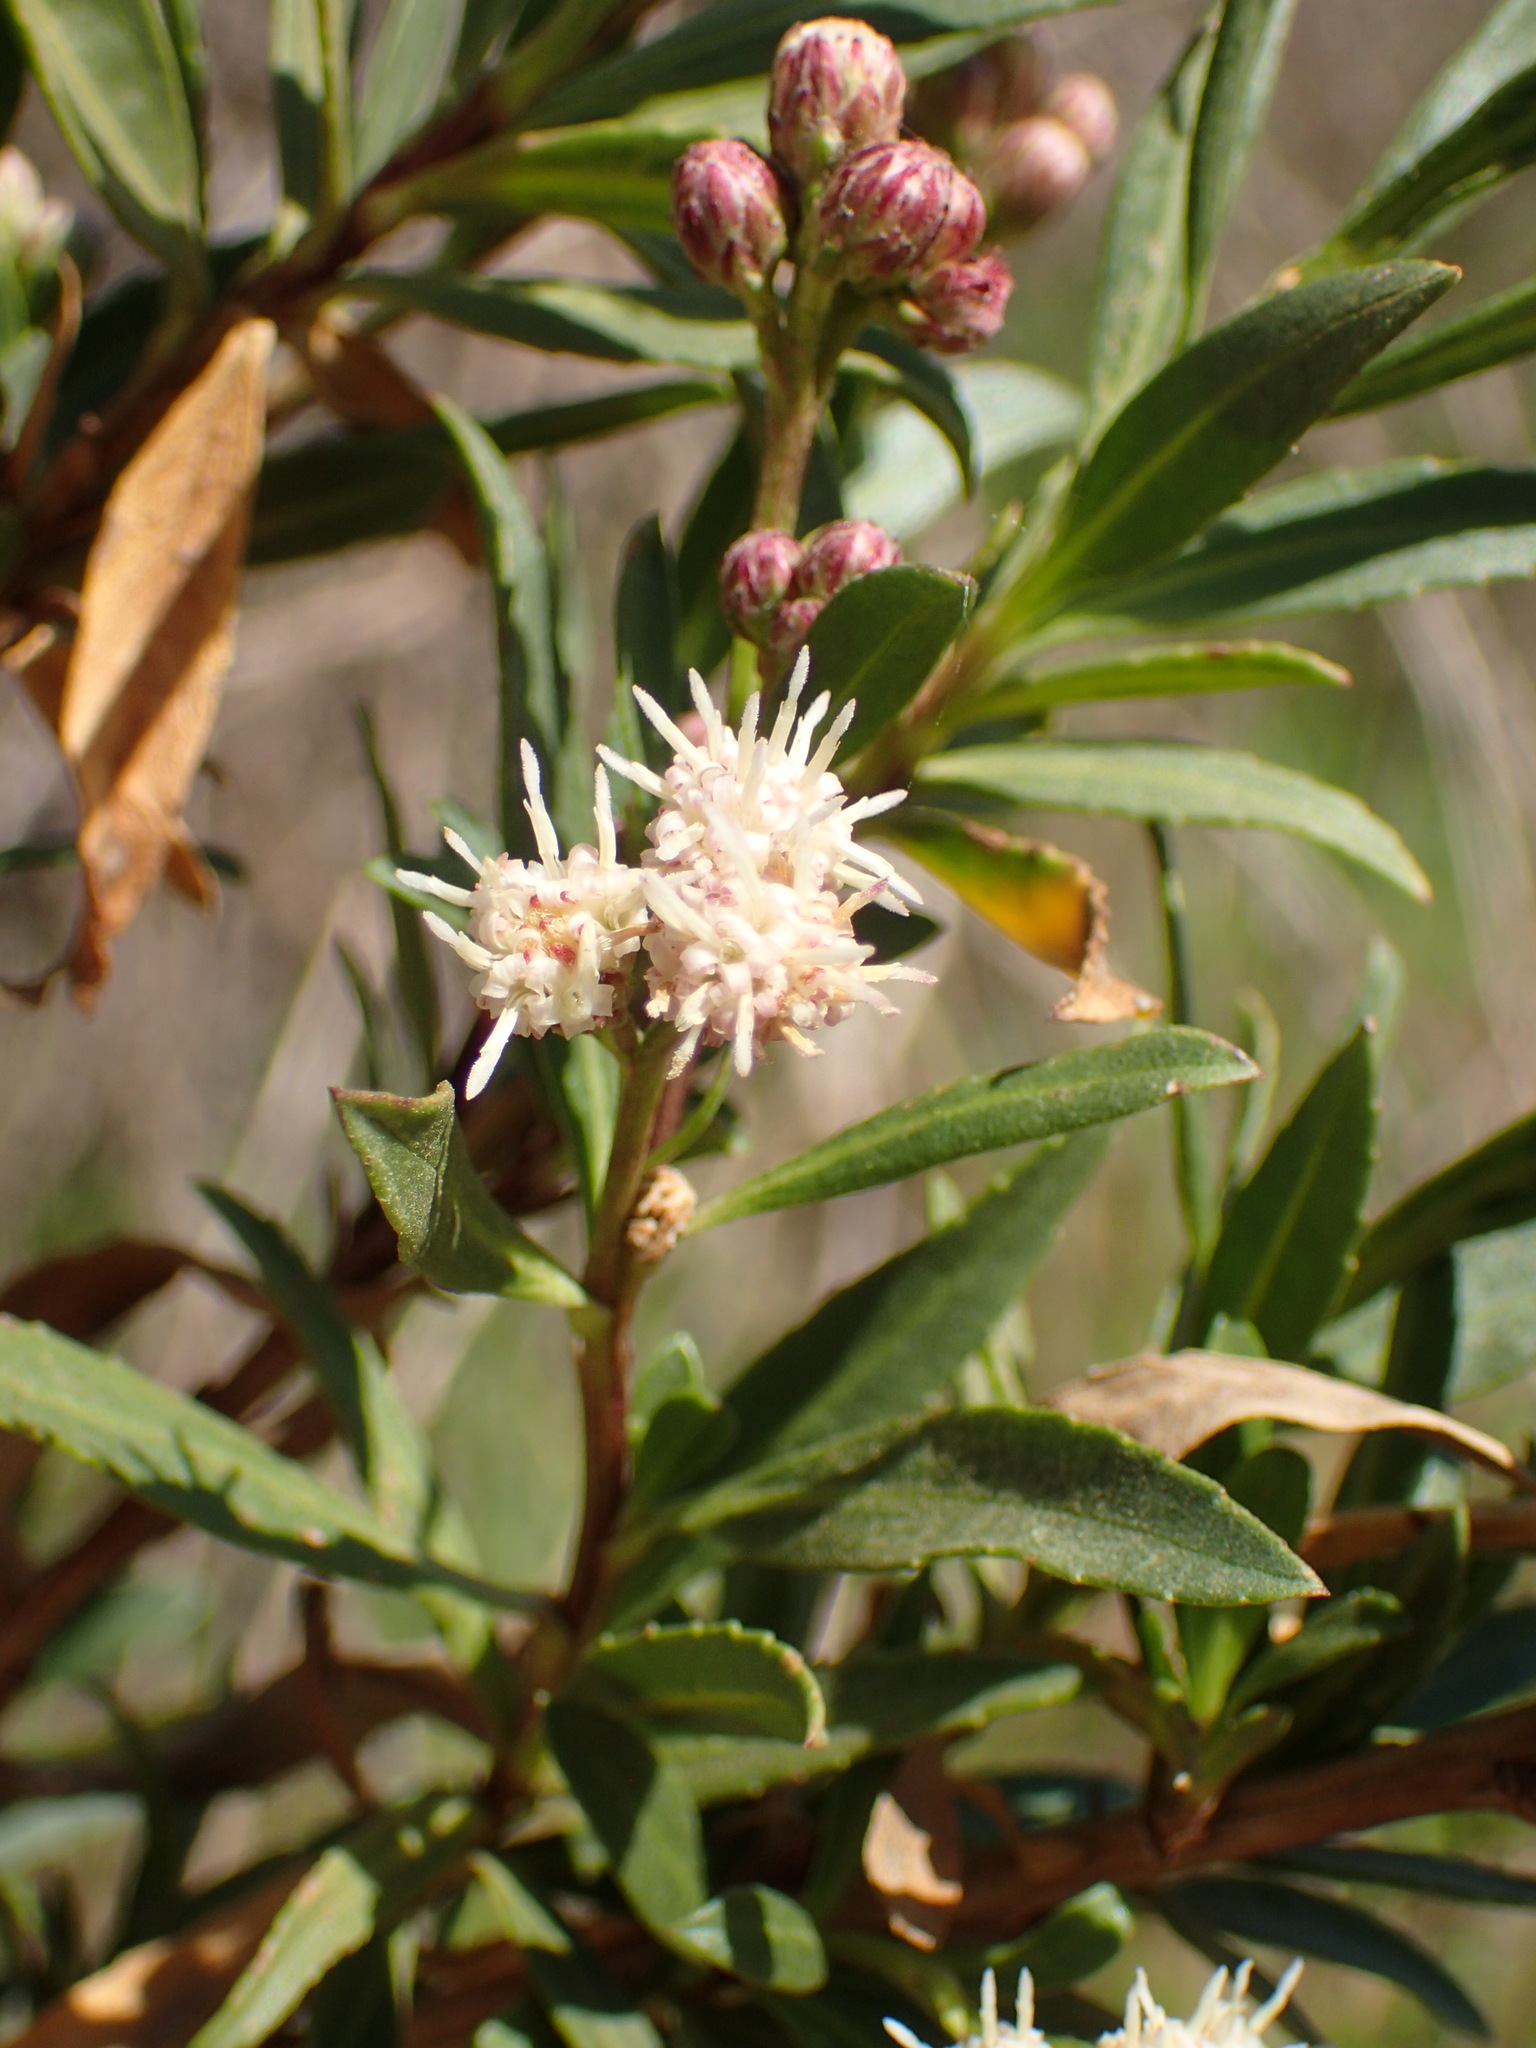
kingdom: Plantae
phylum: Tracheophyta
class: Magnoliopsida
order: Asterales
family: Asteraceae
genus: Baccharis
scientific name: Baccharis salicifolia
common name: Sticky baccharis
